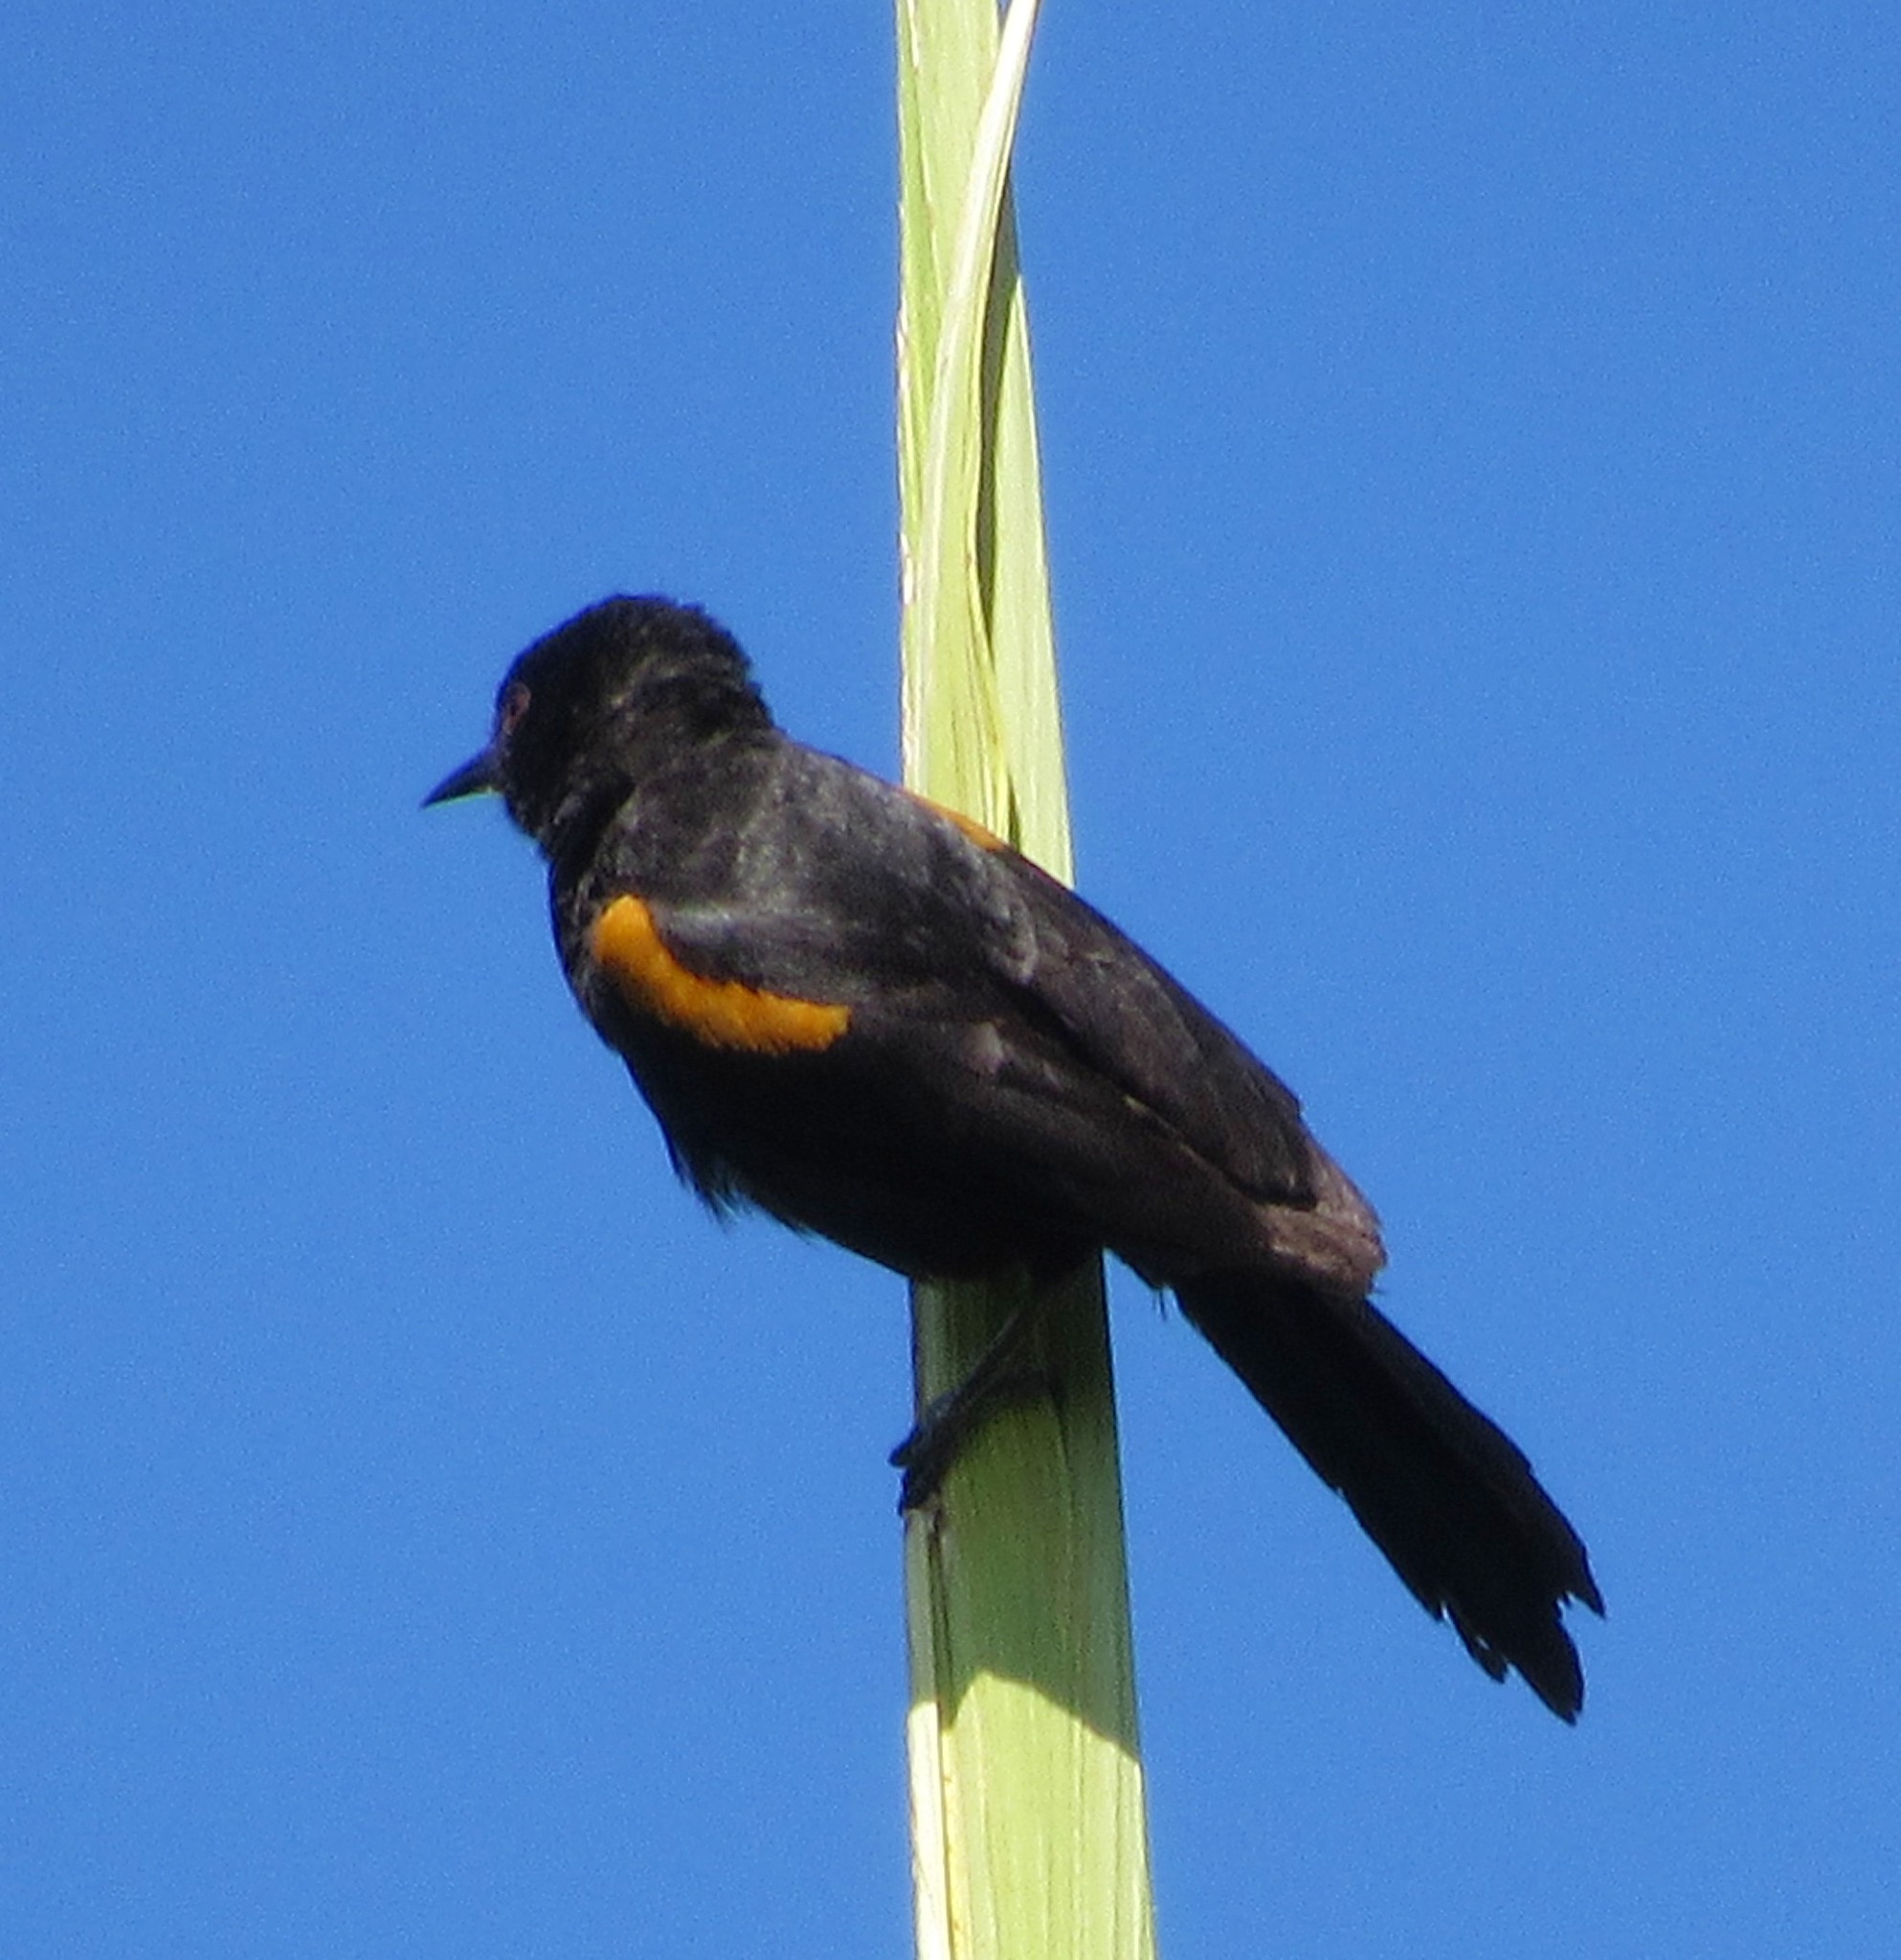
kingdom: Animalia
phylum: Chordata
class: Aves
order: Passeriformes
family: Icteridae
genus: Icterus
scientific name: Icterus cayanensis
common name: Epaulet oriole
